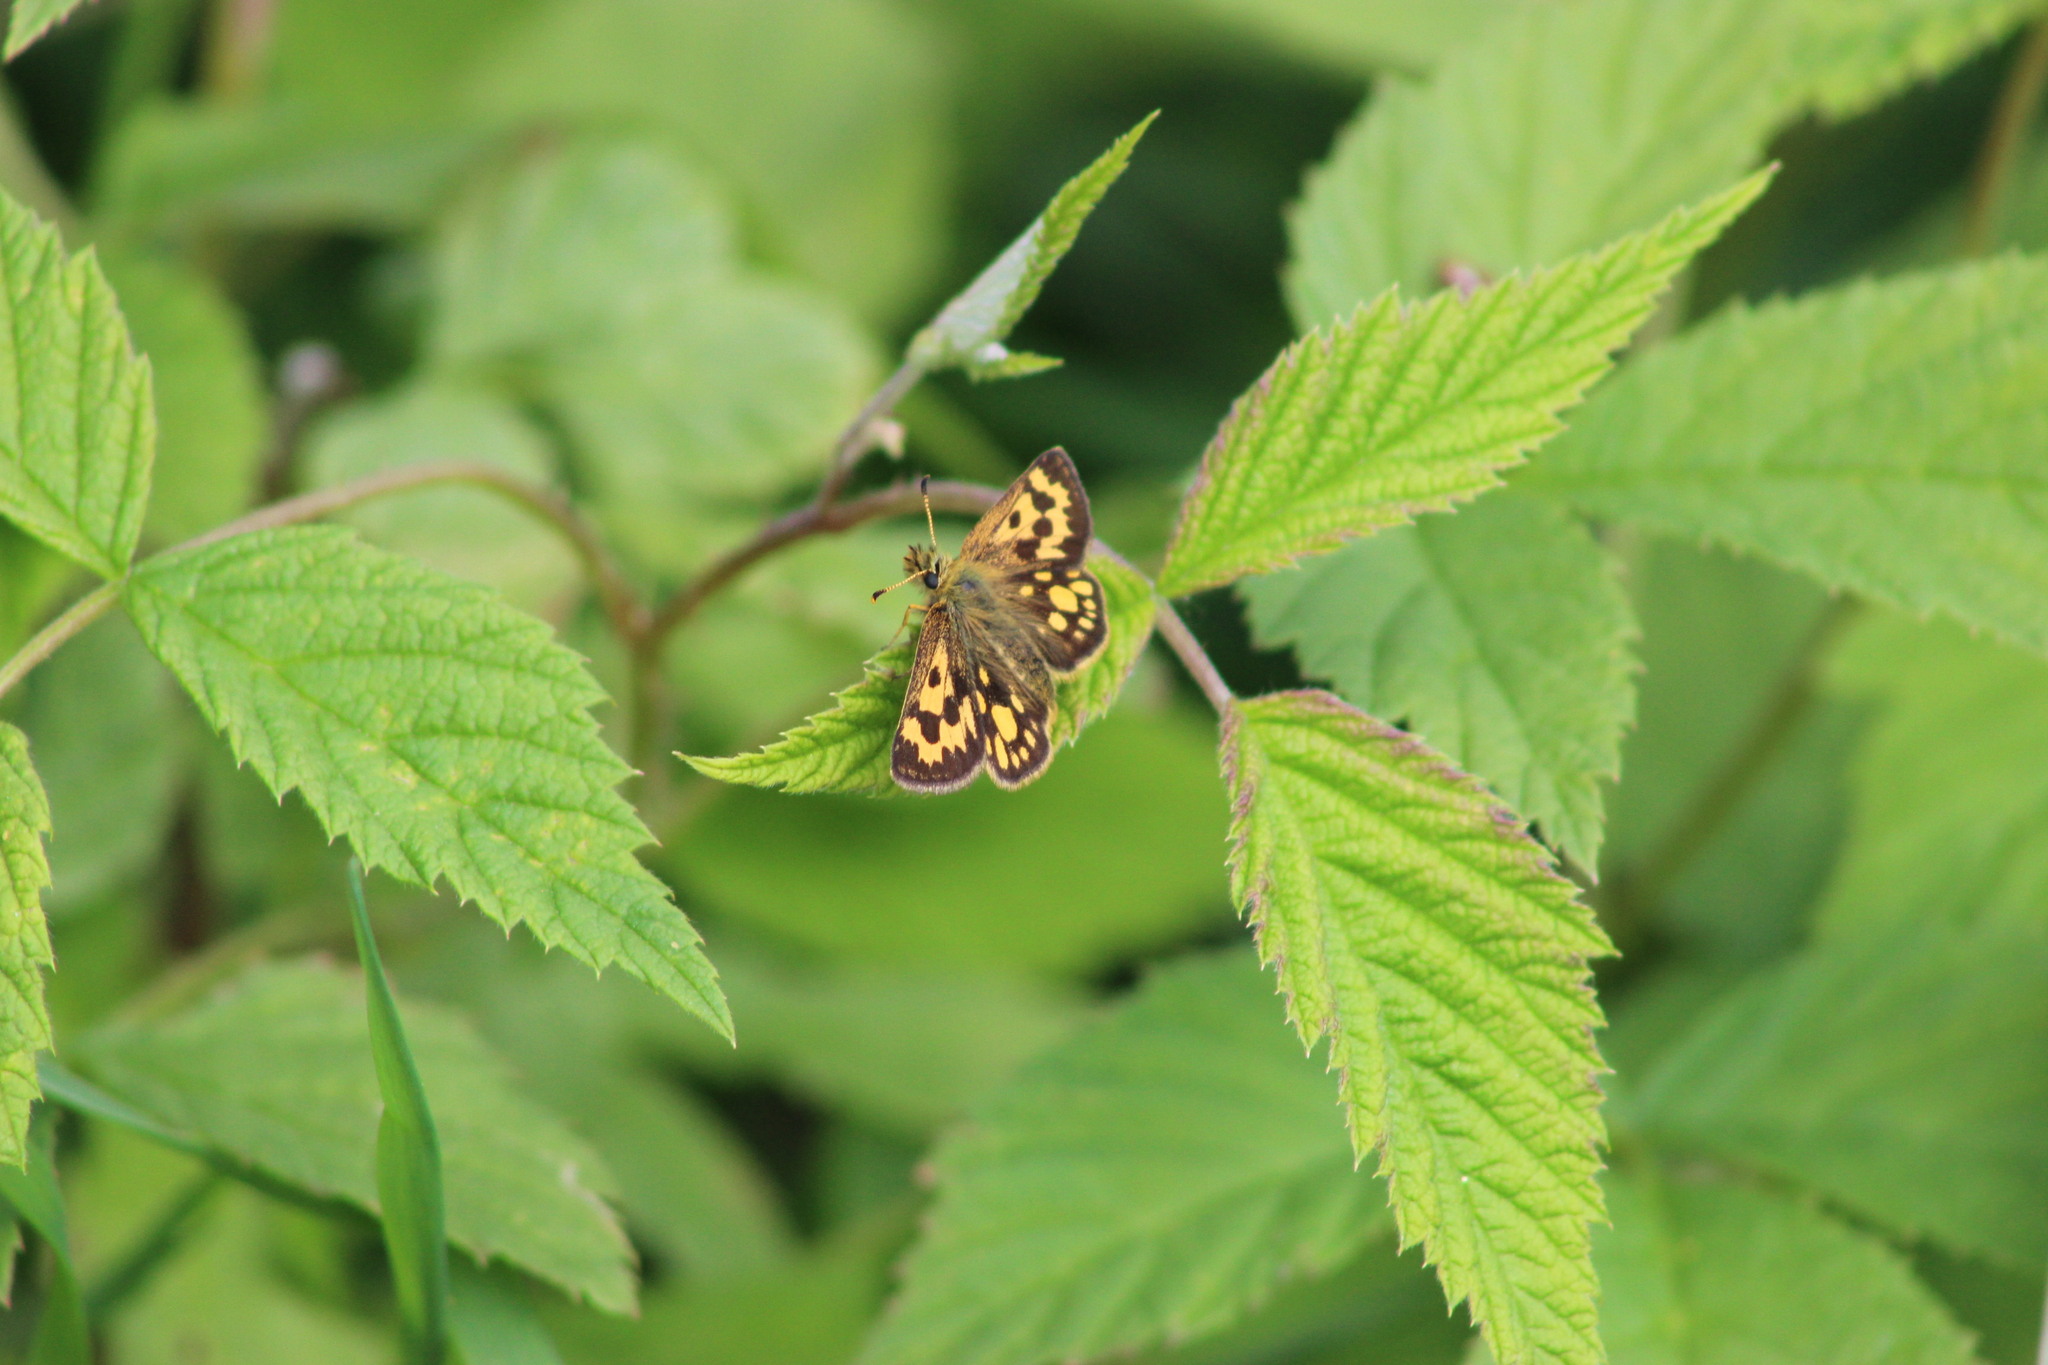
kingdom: Animalia
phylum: Arthropoda
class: Insecta
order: Lepidoptera
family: Hesperiidae
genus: Carterocephalus
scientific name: Carterocephalus silvicola
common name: Northern chequered skipper
